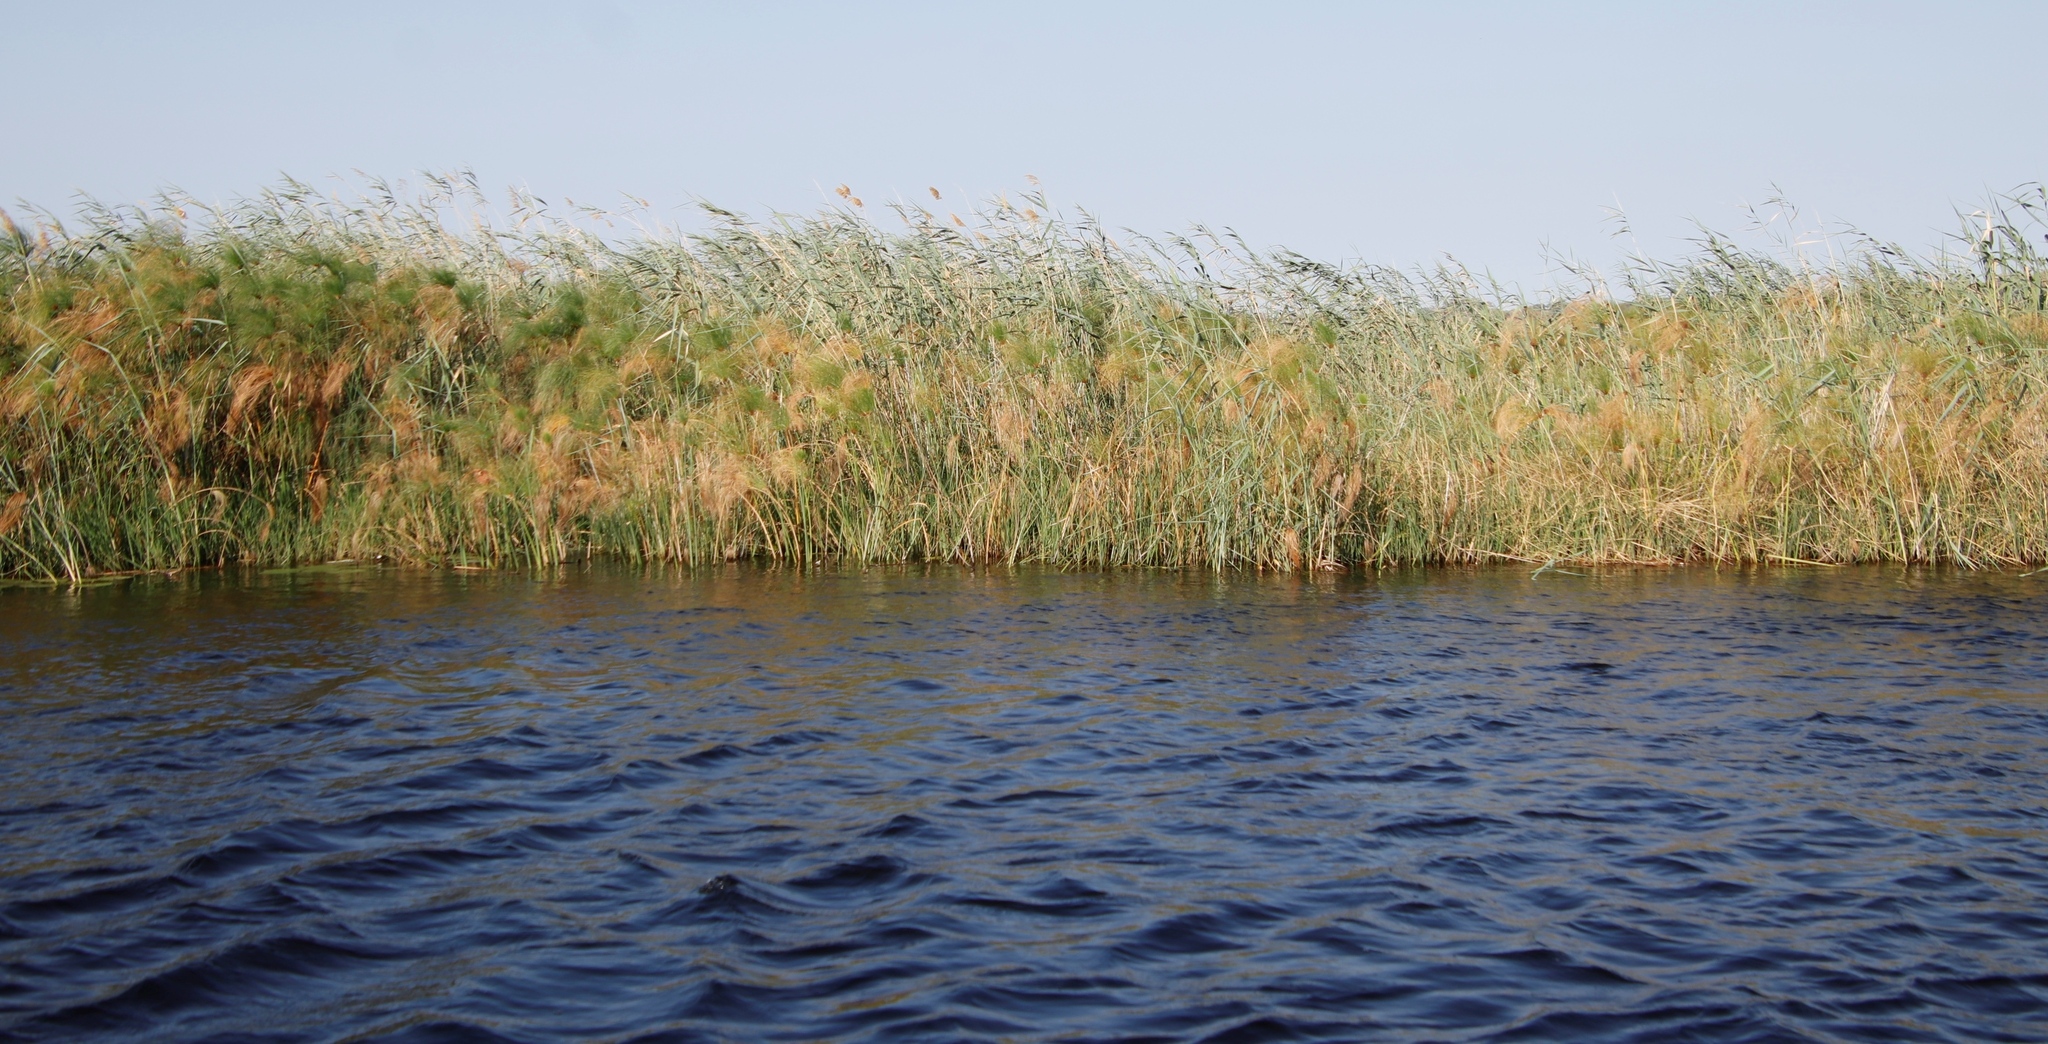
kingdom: Plantae
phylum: Tracheophyta
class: Liliopsida
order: Poales
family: Poaceae
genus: Phragmites
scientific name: Phragmites australis
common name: Common reed
